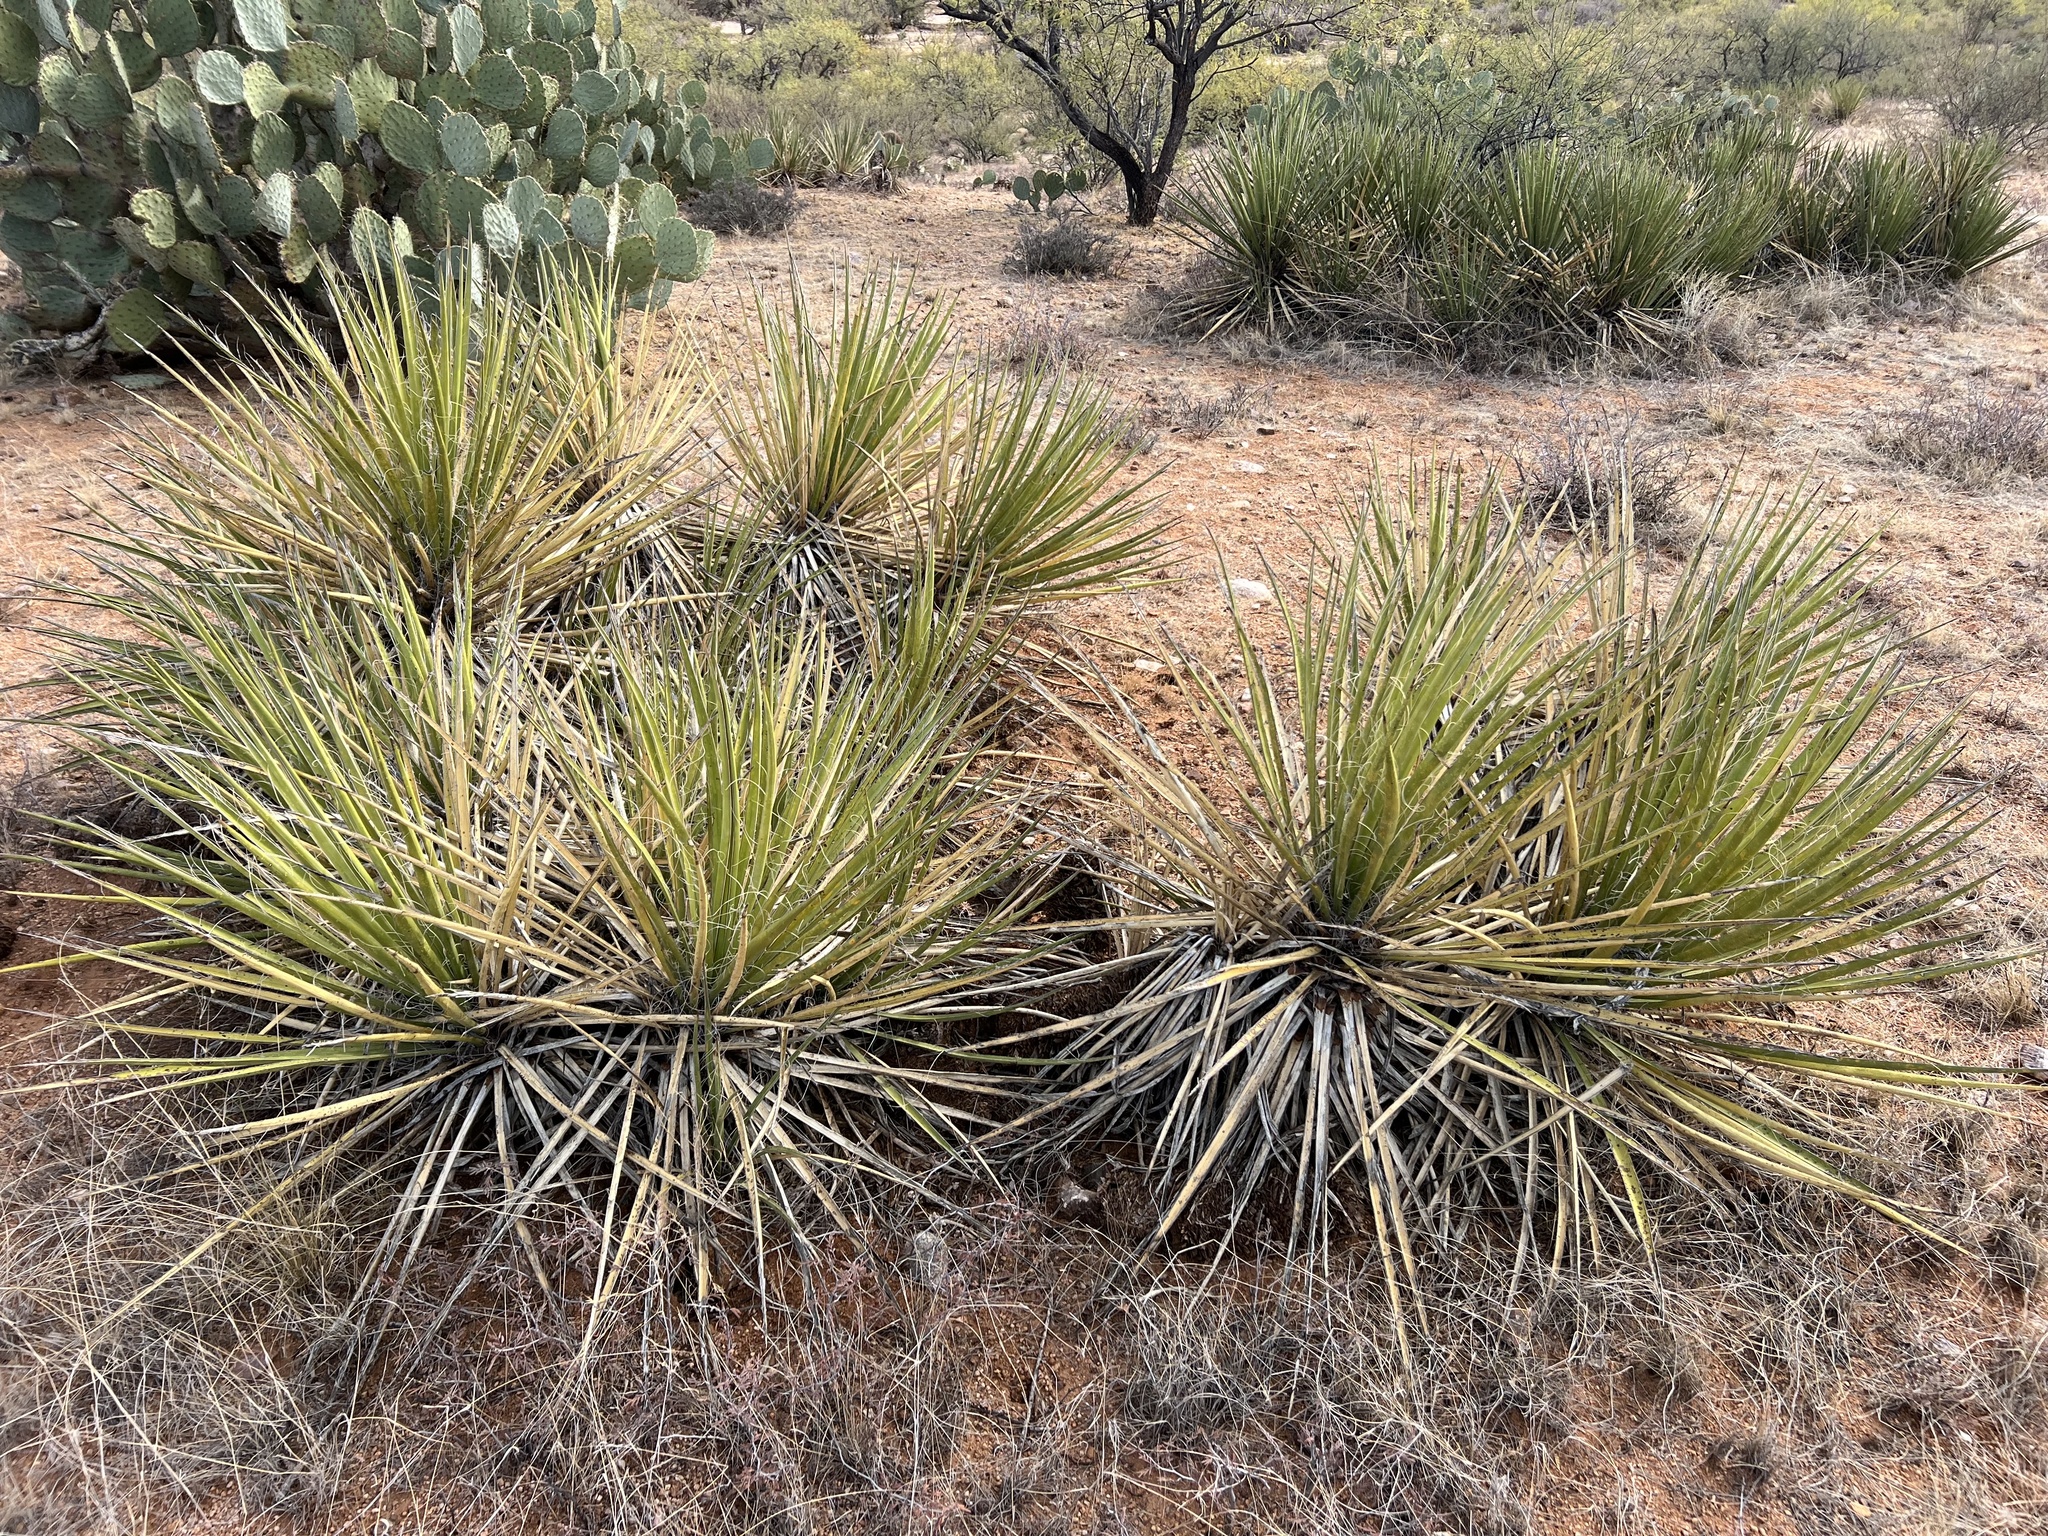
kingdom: Plantae
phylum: Tracheophyta
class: Liliopsida
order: Asparagales
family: Asparagaceae
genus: Yucca
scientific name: Yucca baccata
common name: Banana yucca
